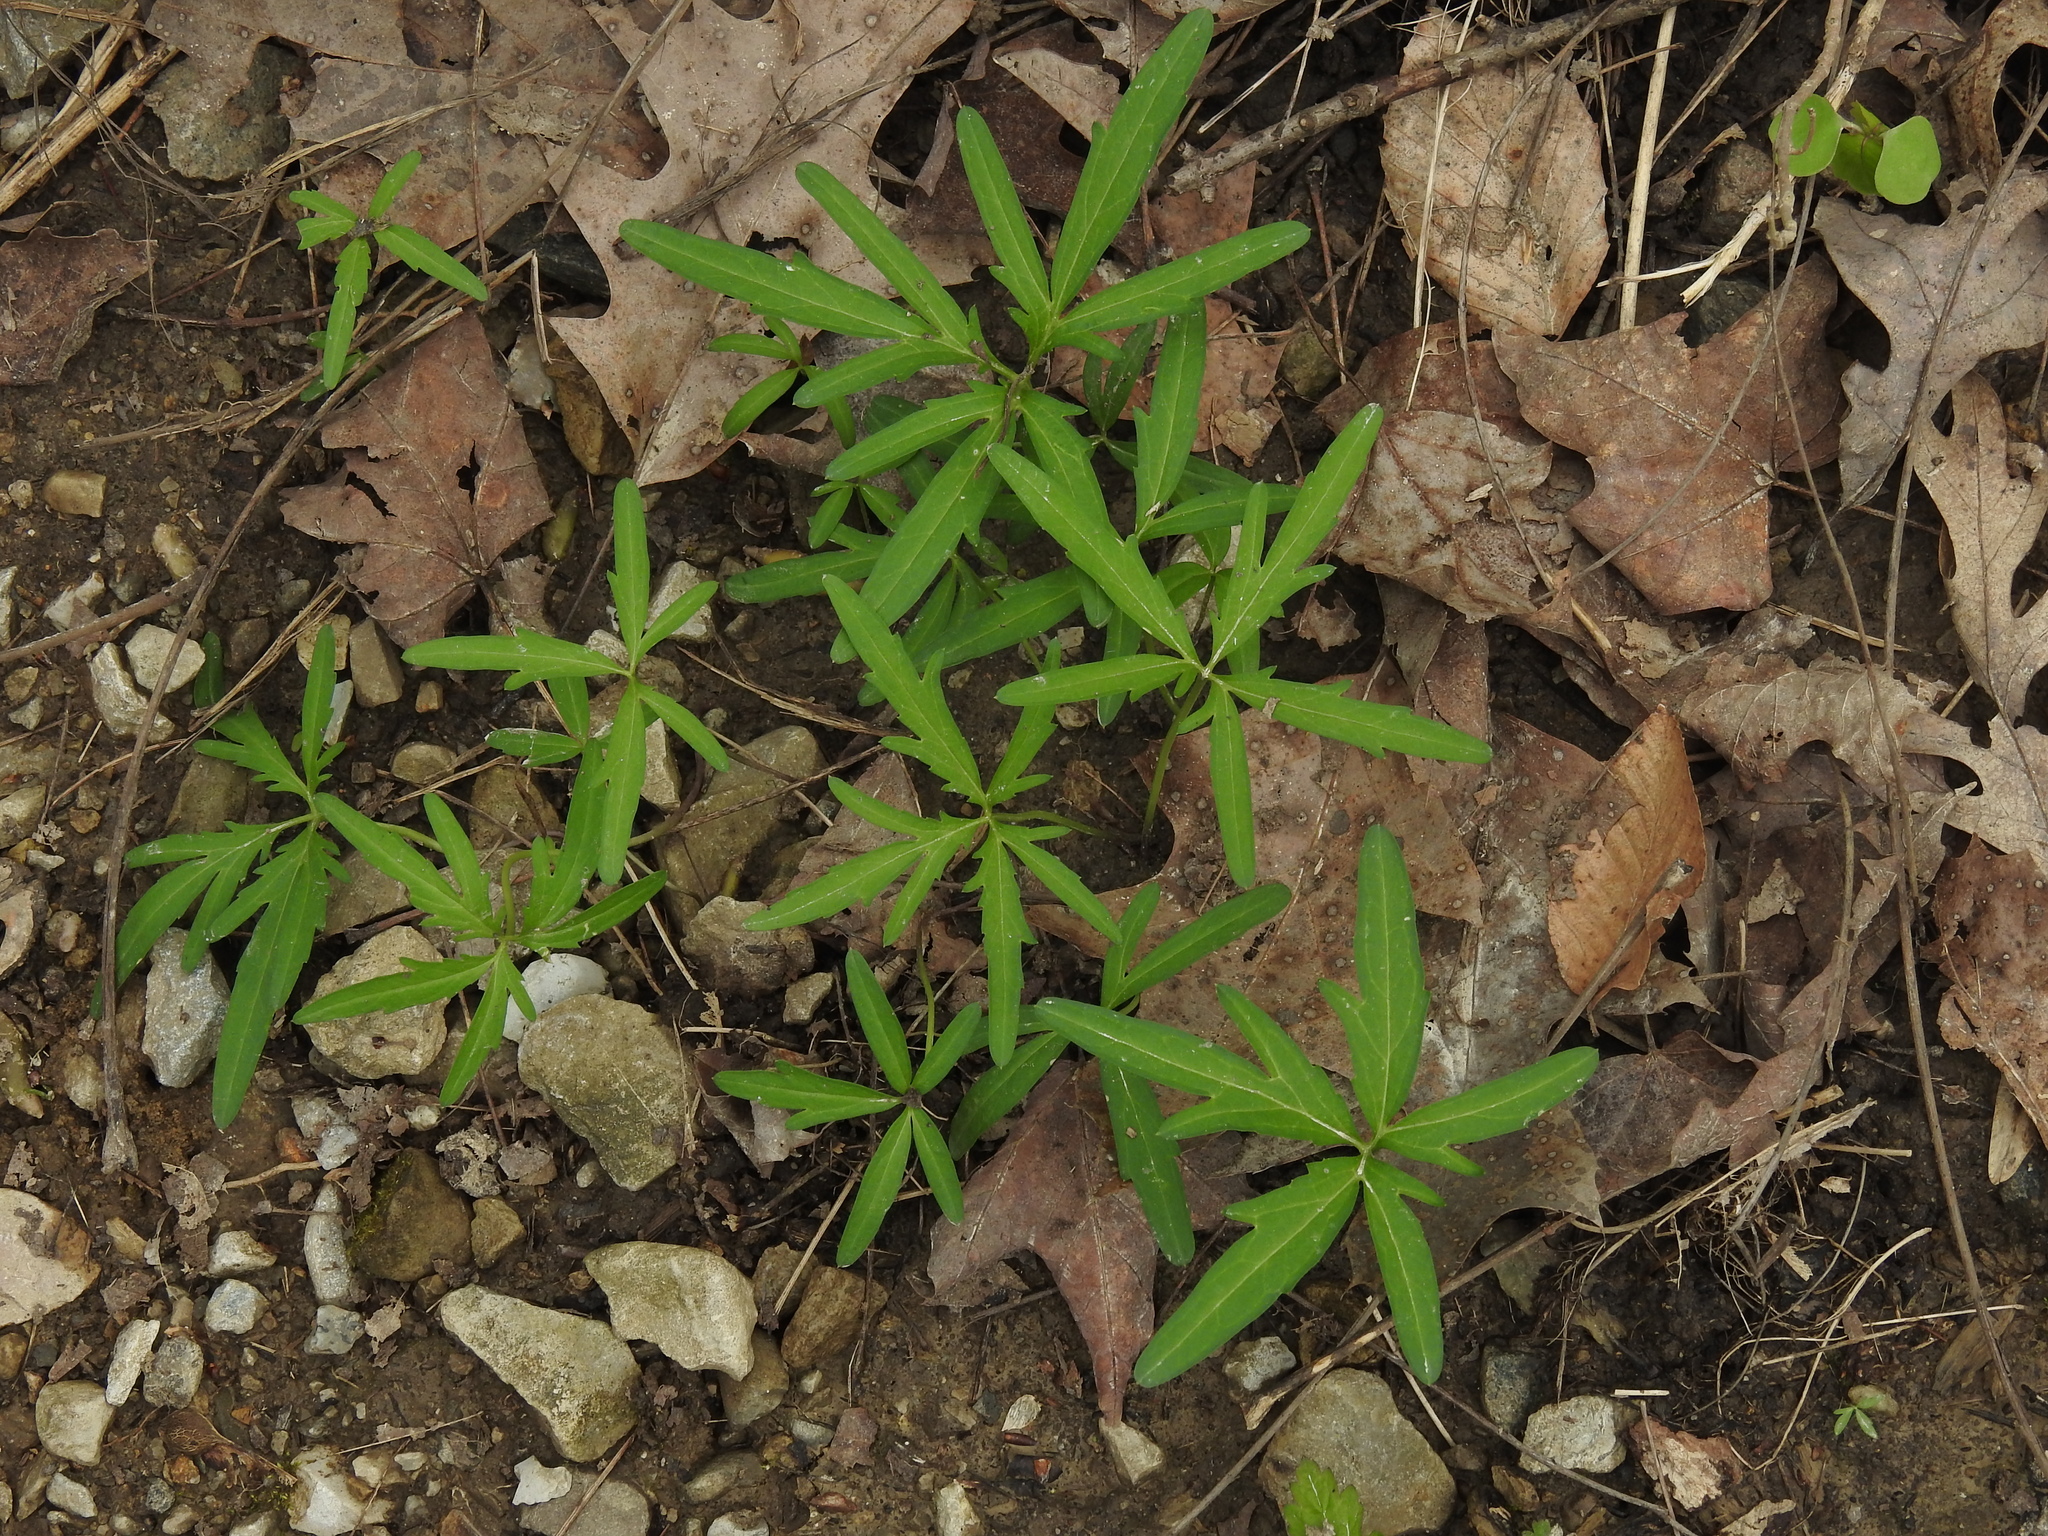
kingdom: Plantae
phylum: Tracheophyta
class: Magnoliopsida
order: Brassicales
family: Brassicaceae
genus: Cardamine
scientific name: Cardamine concatenata
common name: Cut-leaf toothcup
